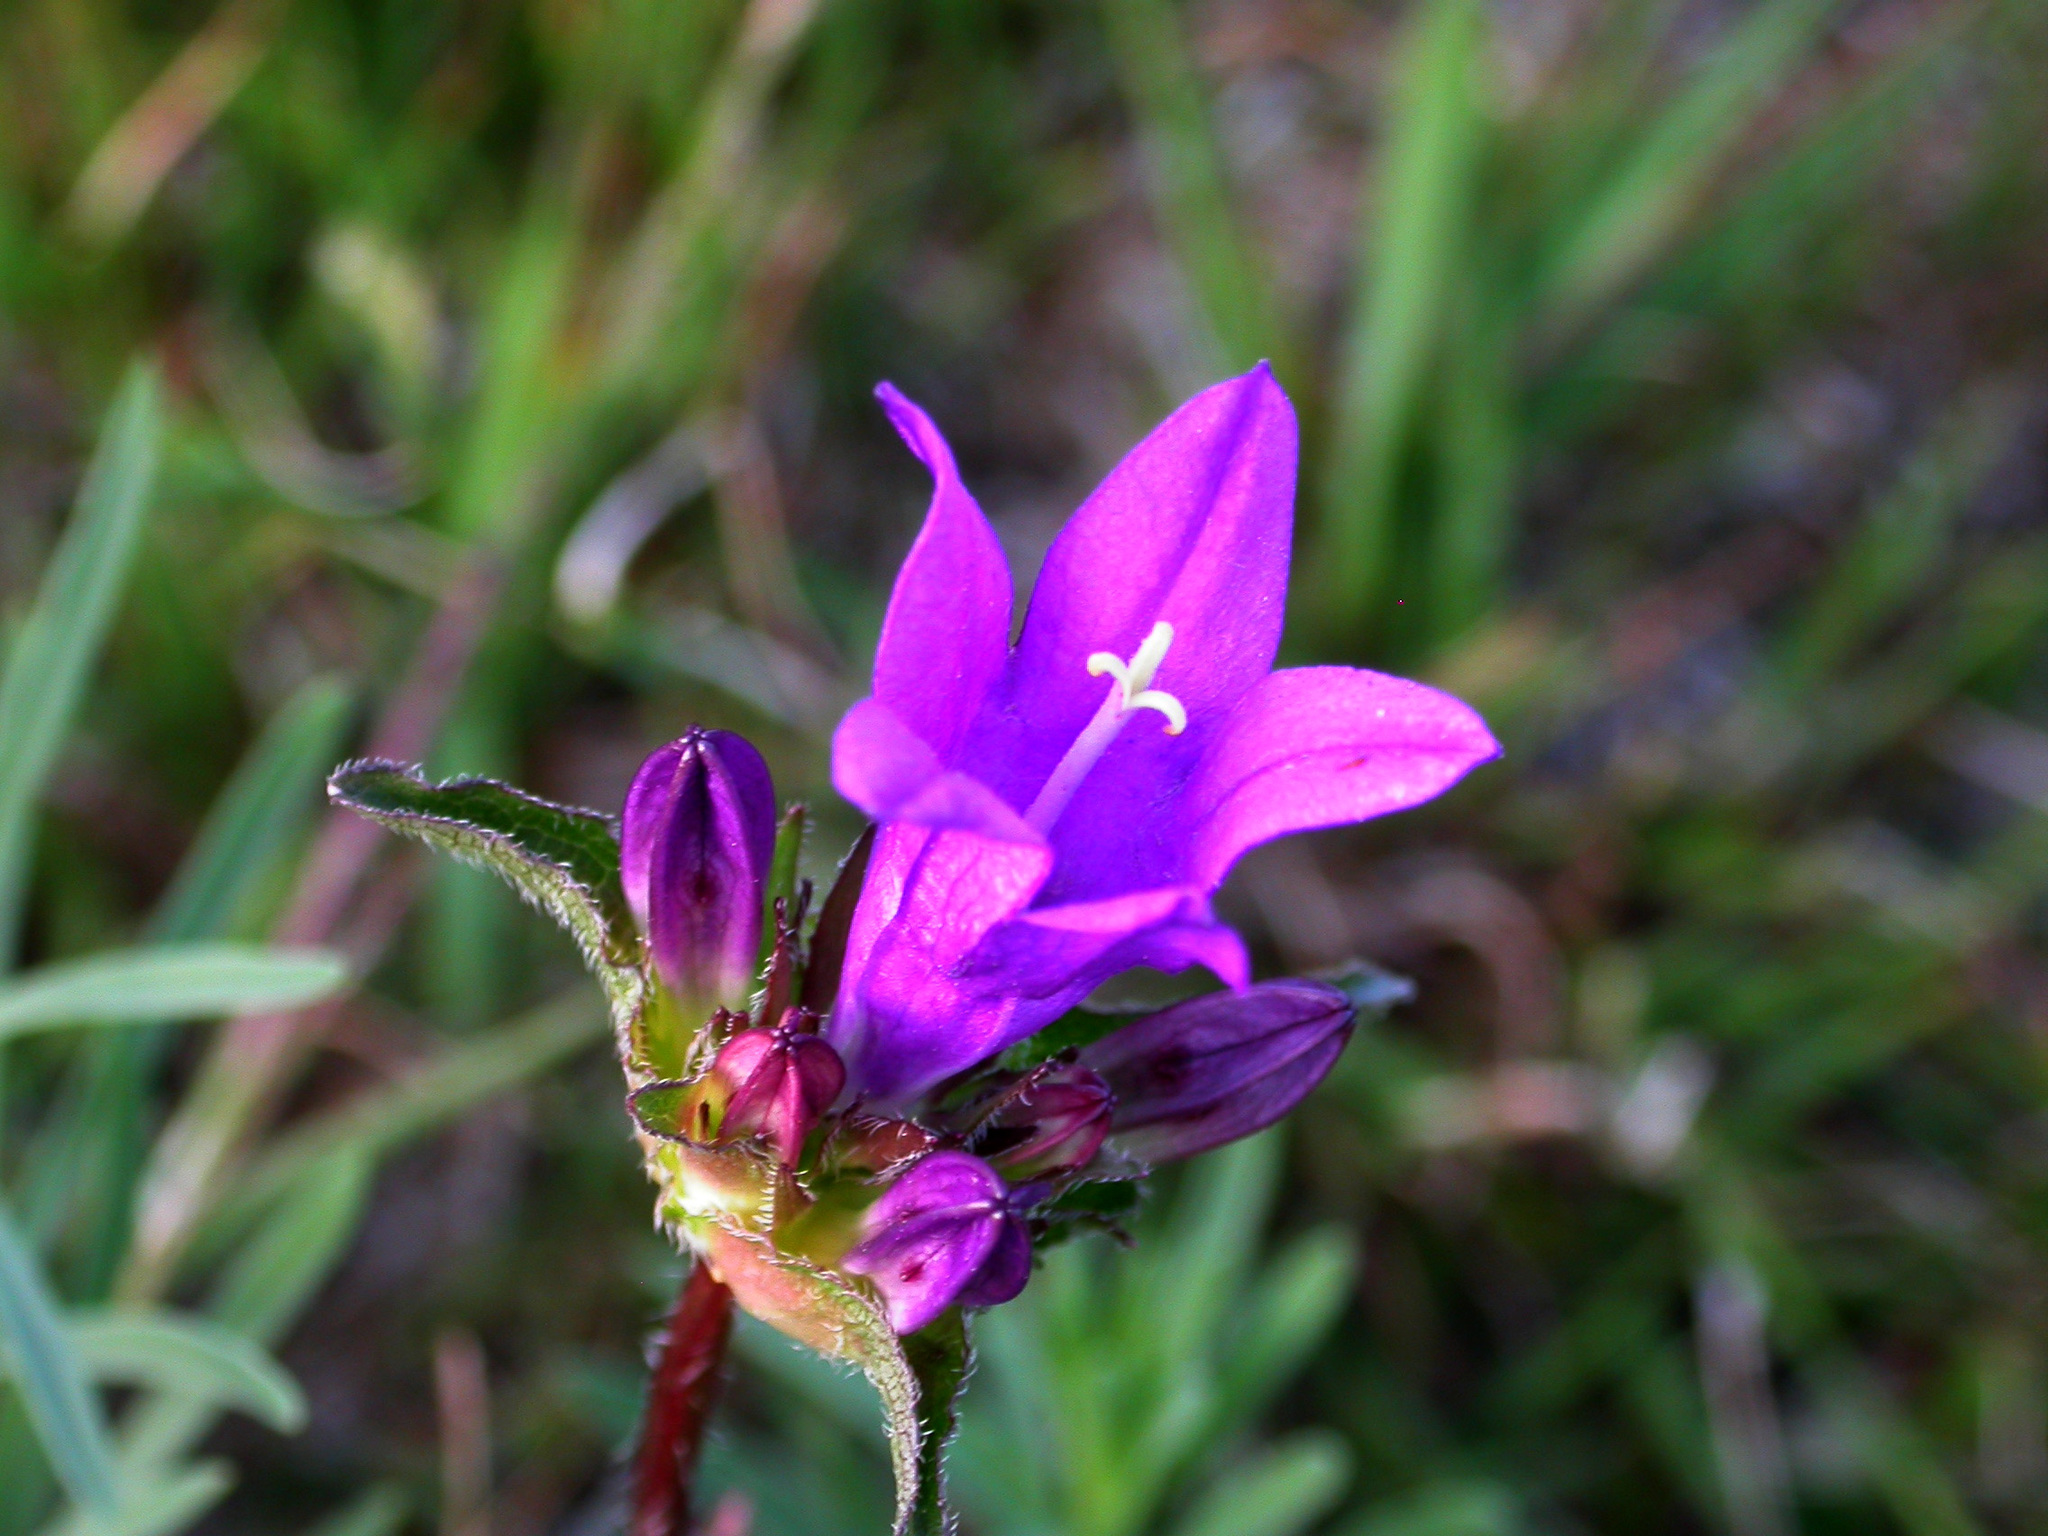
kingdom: Plantae
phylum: Tracheophyta
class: Magnoliopsida
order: Asterales
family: Campanulaceae
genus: Campanula
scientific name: Campanula glomerata
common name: Clustered bellflower
